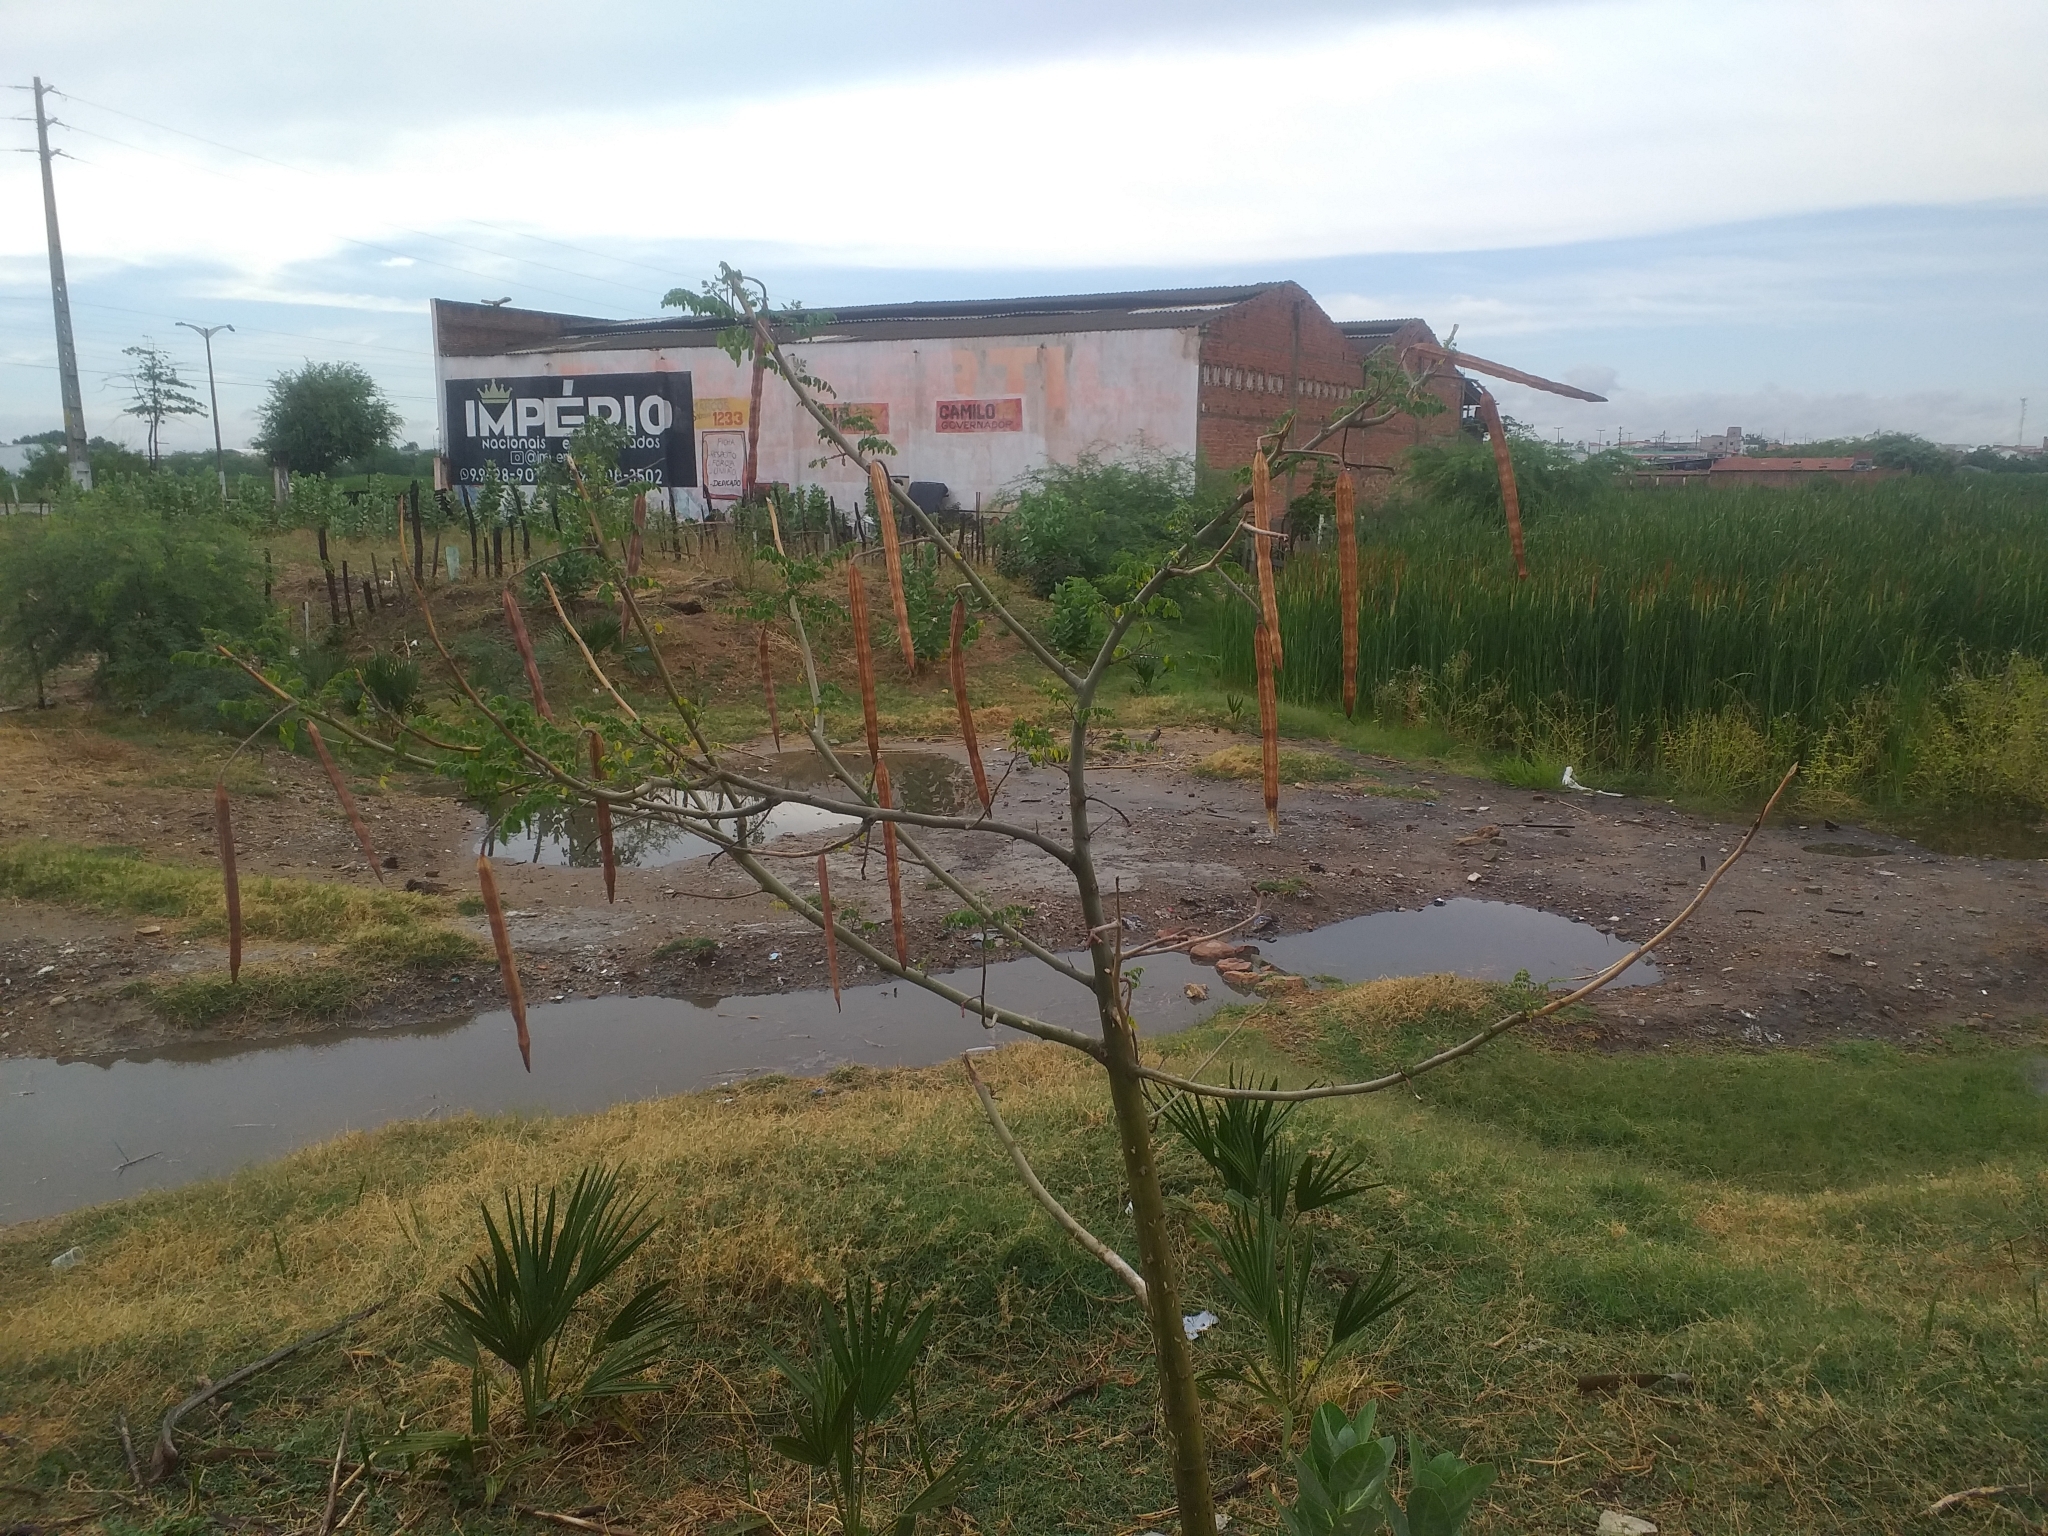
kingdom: Plantae
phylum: Tracheophyta
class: Magnoliopsida
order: Brassicales
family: Moringaceae
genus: Moringa
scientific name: Moringa oleifera
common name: Horseradish-tree
